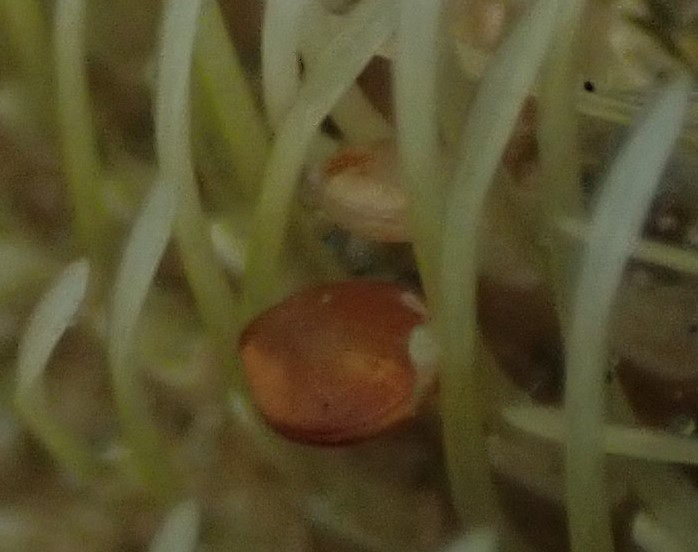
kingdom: Animalia
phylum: Mollusca
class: Bivalvia
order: Galeommatida
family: Lasaeidae
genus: Montacuta
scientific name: Montacuta semiradiata
